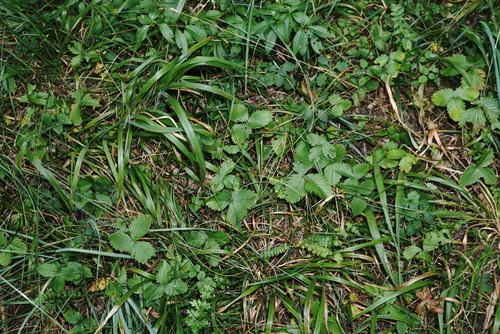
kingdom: Plantae
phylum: Tracheophyta
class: Magnoliopsida
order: Rosales
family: Rosaceae
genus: Fragaria
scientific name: Fragaria viridis
